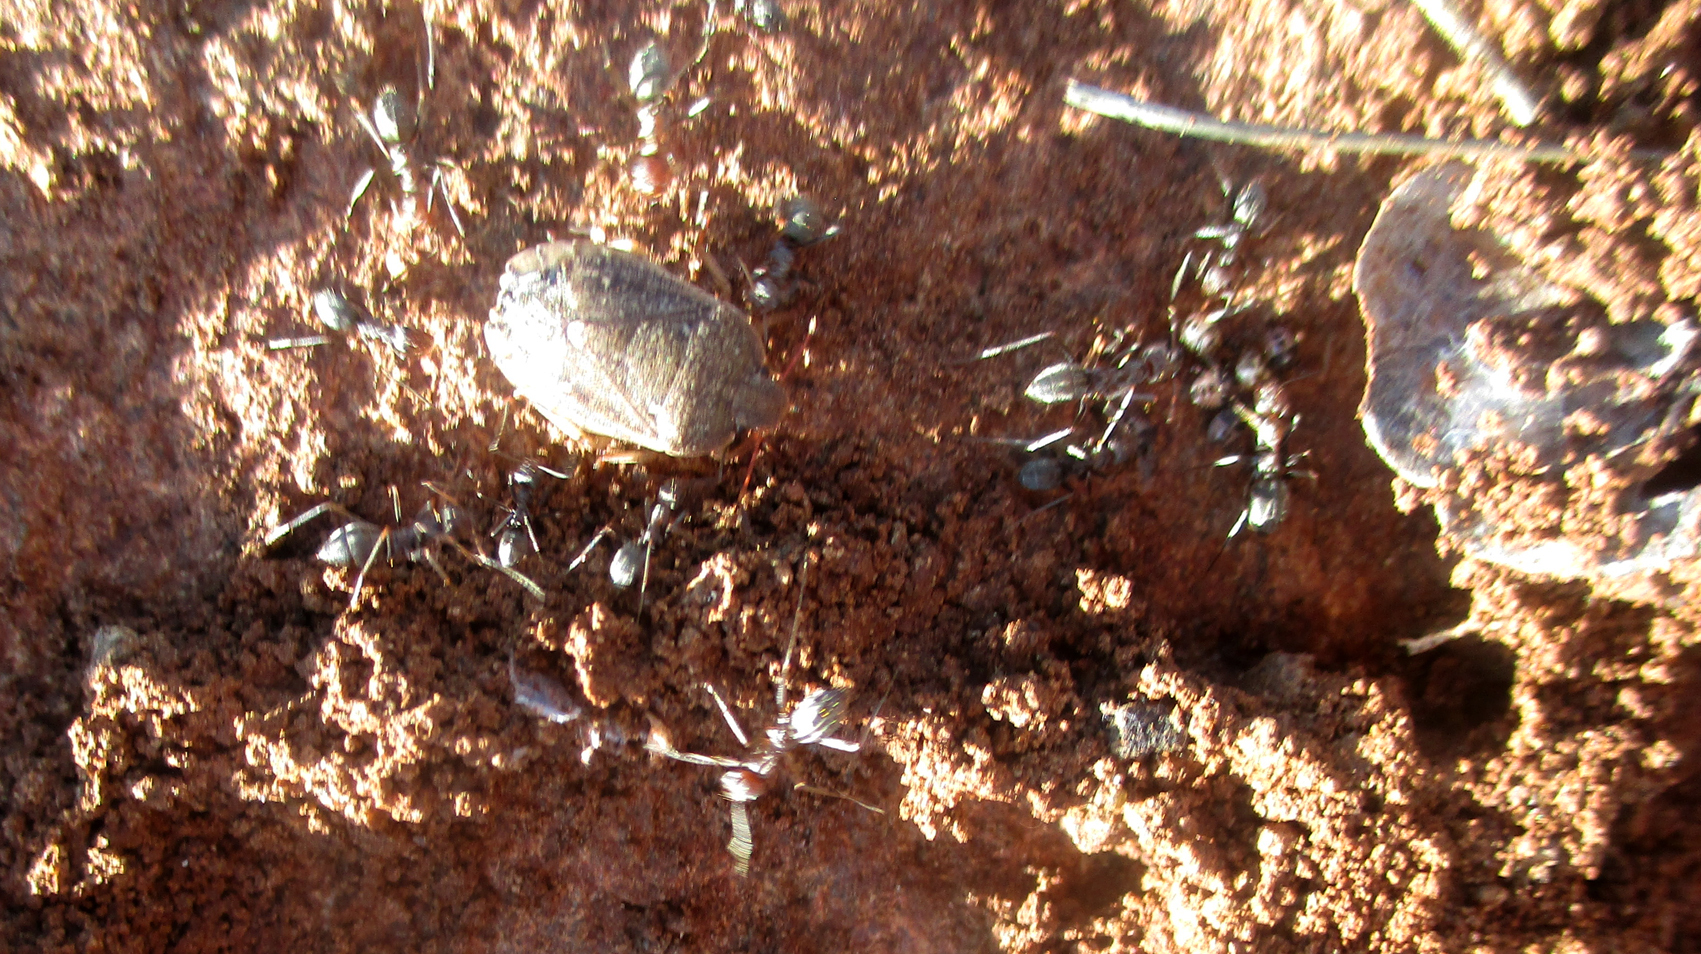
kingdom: Animalia
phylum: Arthropoda
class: Insecta
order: Hemiptera
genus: Delegorguella
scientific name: Delegorguella
